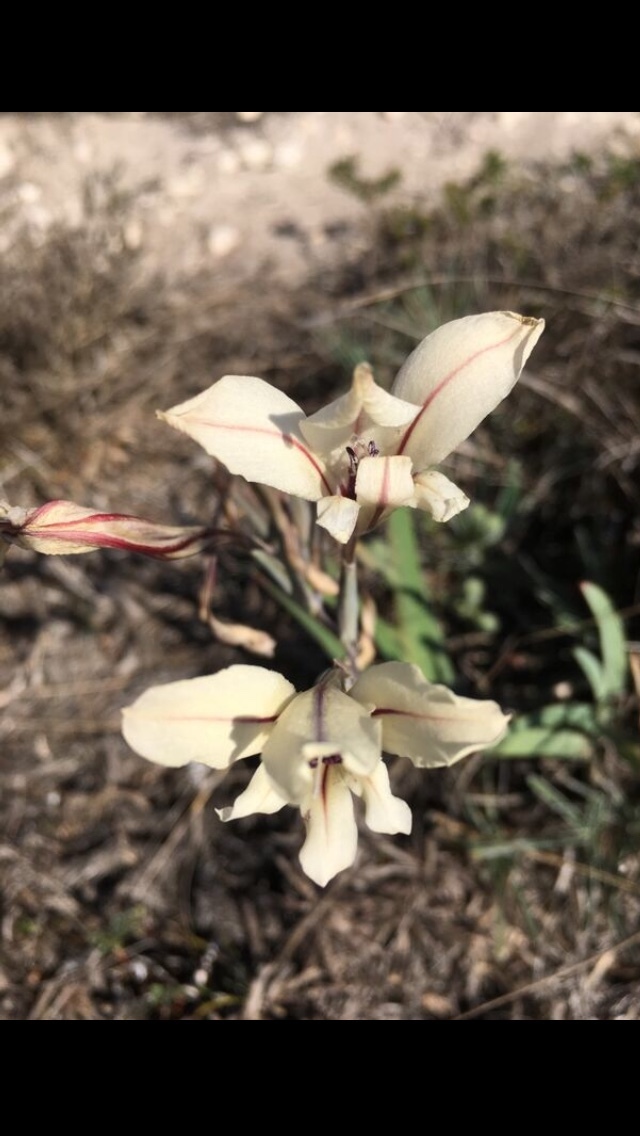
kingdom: Plantae
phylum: Tracheophyta
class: Liliopsida
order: Asparagales
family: Iridaceae
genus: Gladiolus
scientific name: Gladiolus floribundus
